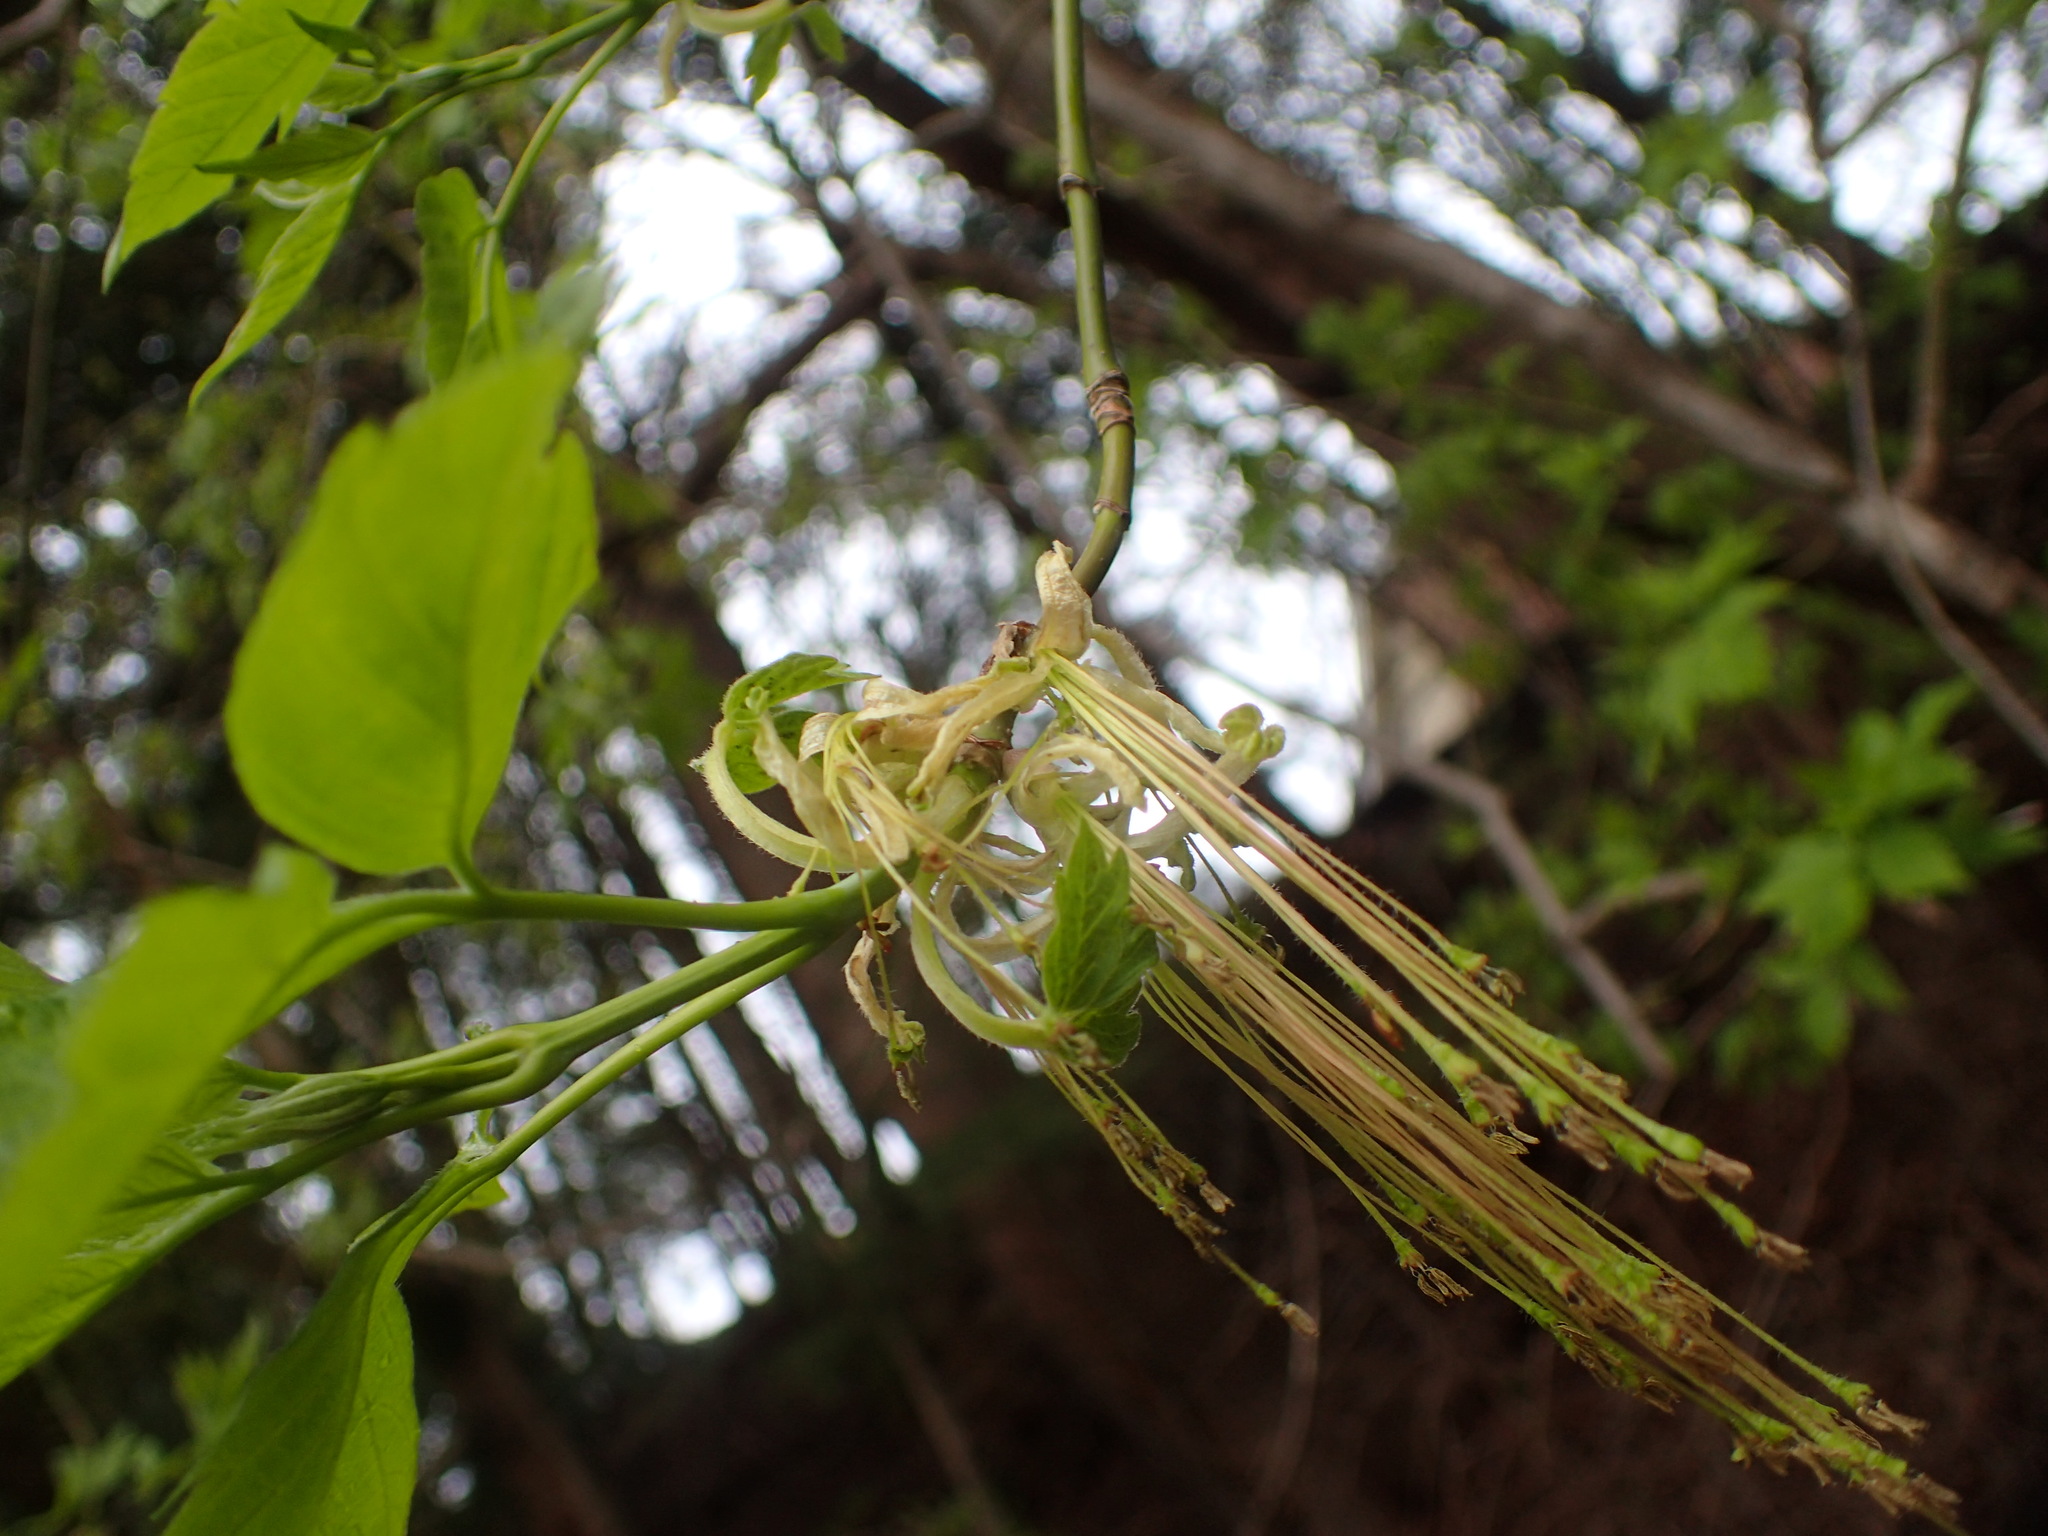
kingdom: Plantae
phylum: Tracheophyta
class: Magnoliopsida
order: Sapindales
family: Sapindaceae
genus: Acer
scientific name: Acer negundo
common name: Ashleaf maple
